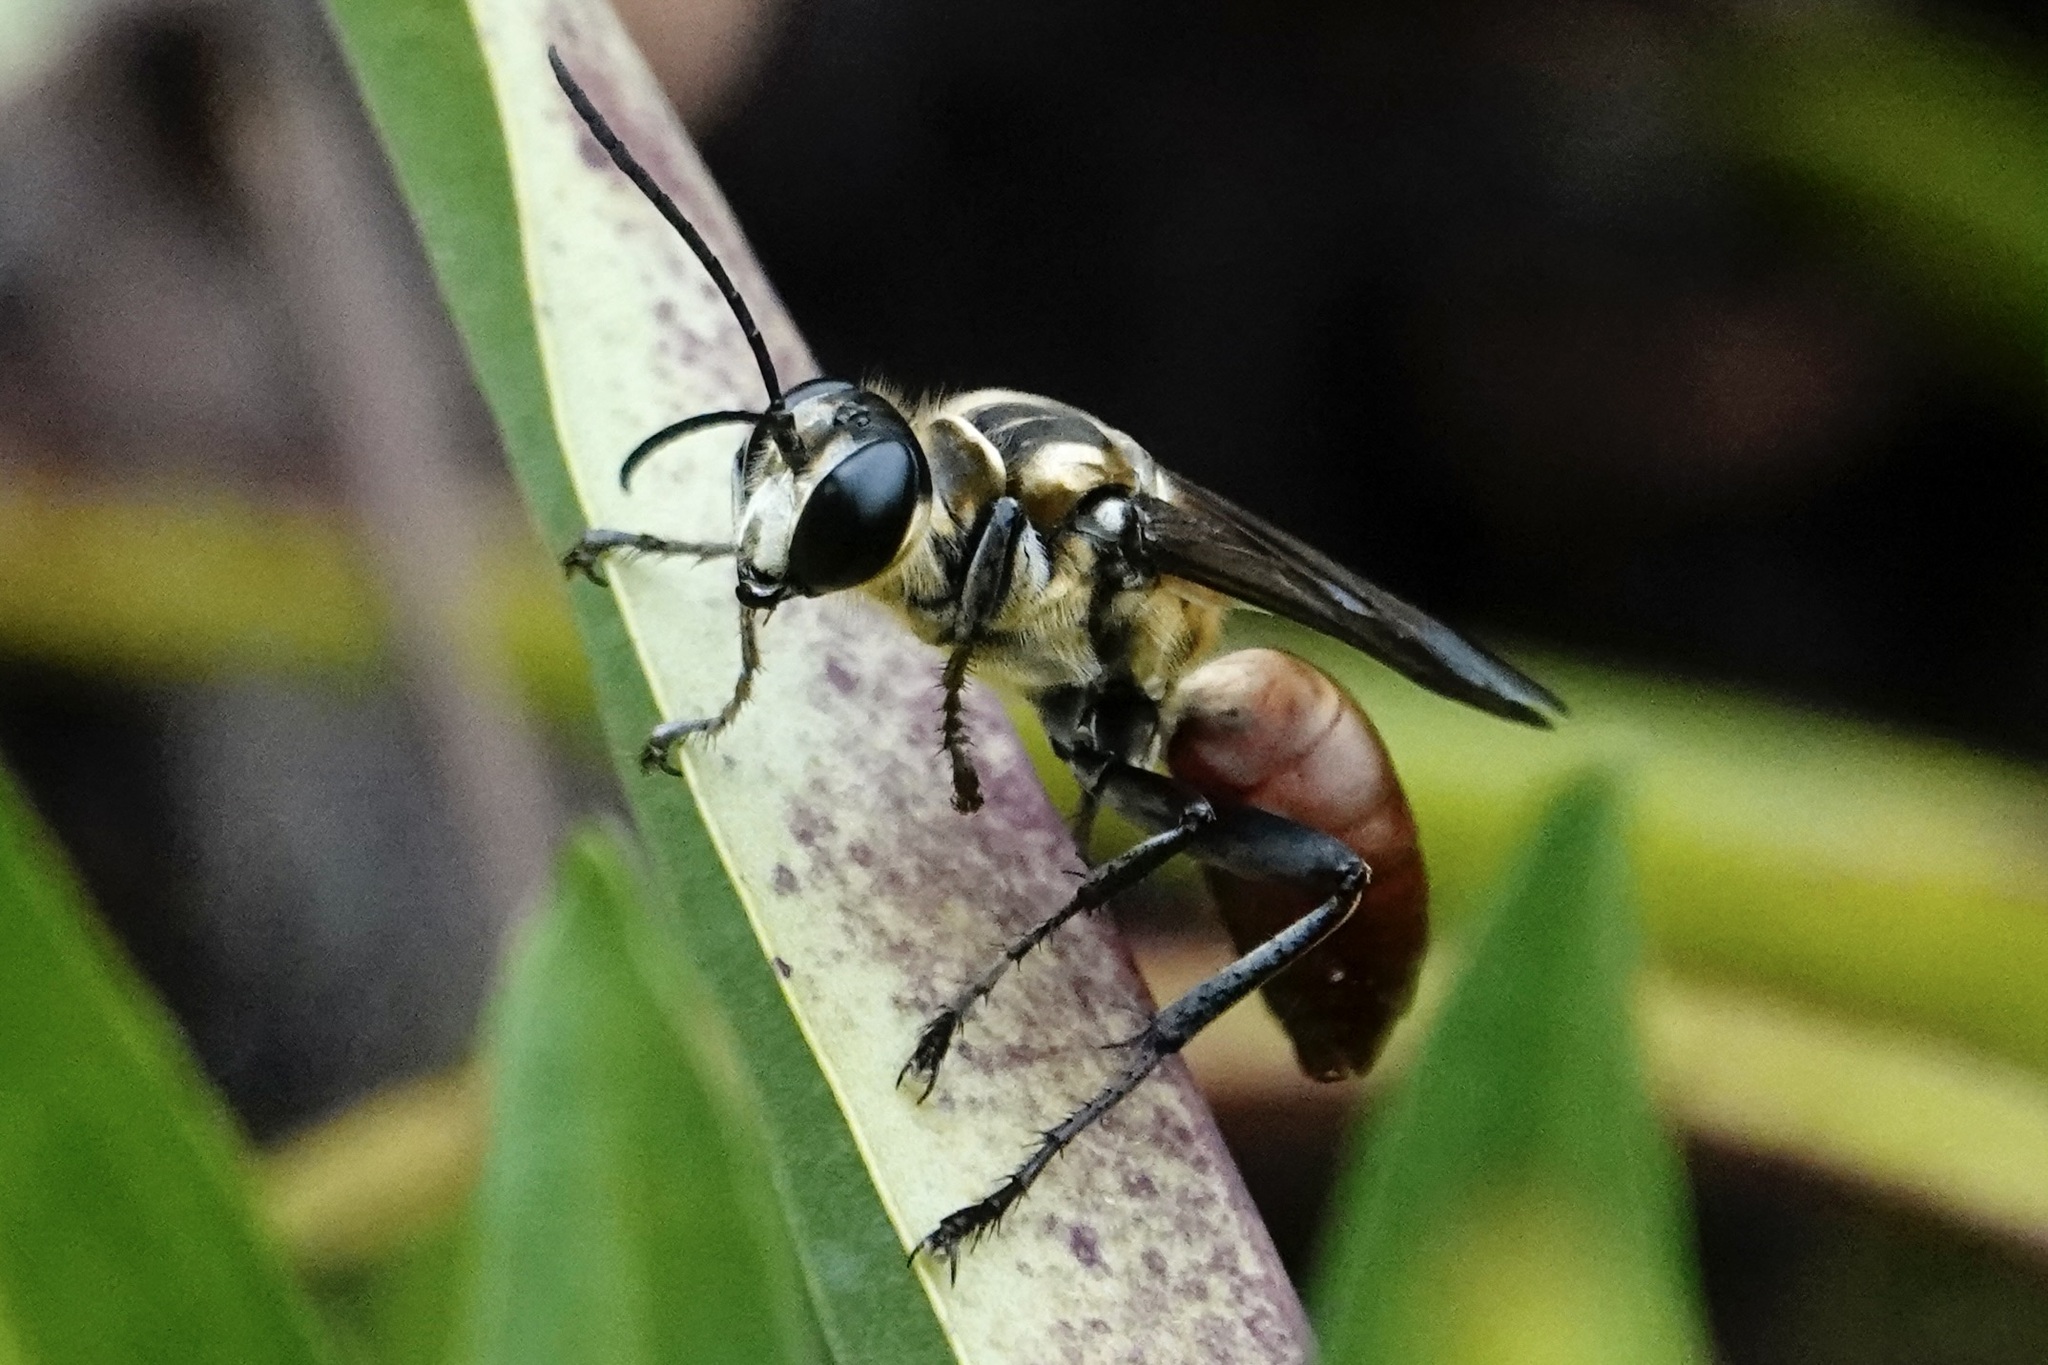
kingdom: Animalia
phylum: Arthropoda
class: Insecta
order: Hymenoptera
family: Sphecidae
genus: Sphex
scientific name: Sphex habenus
